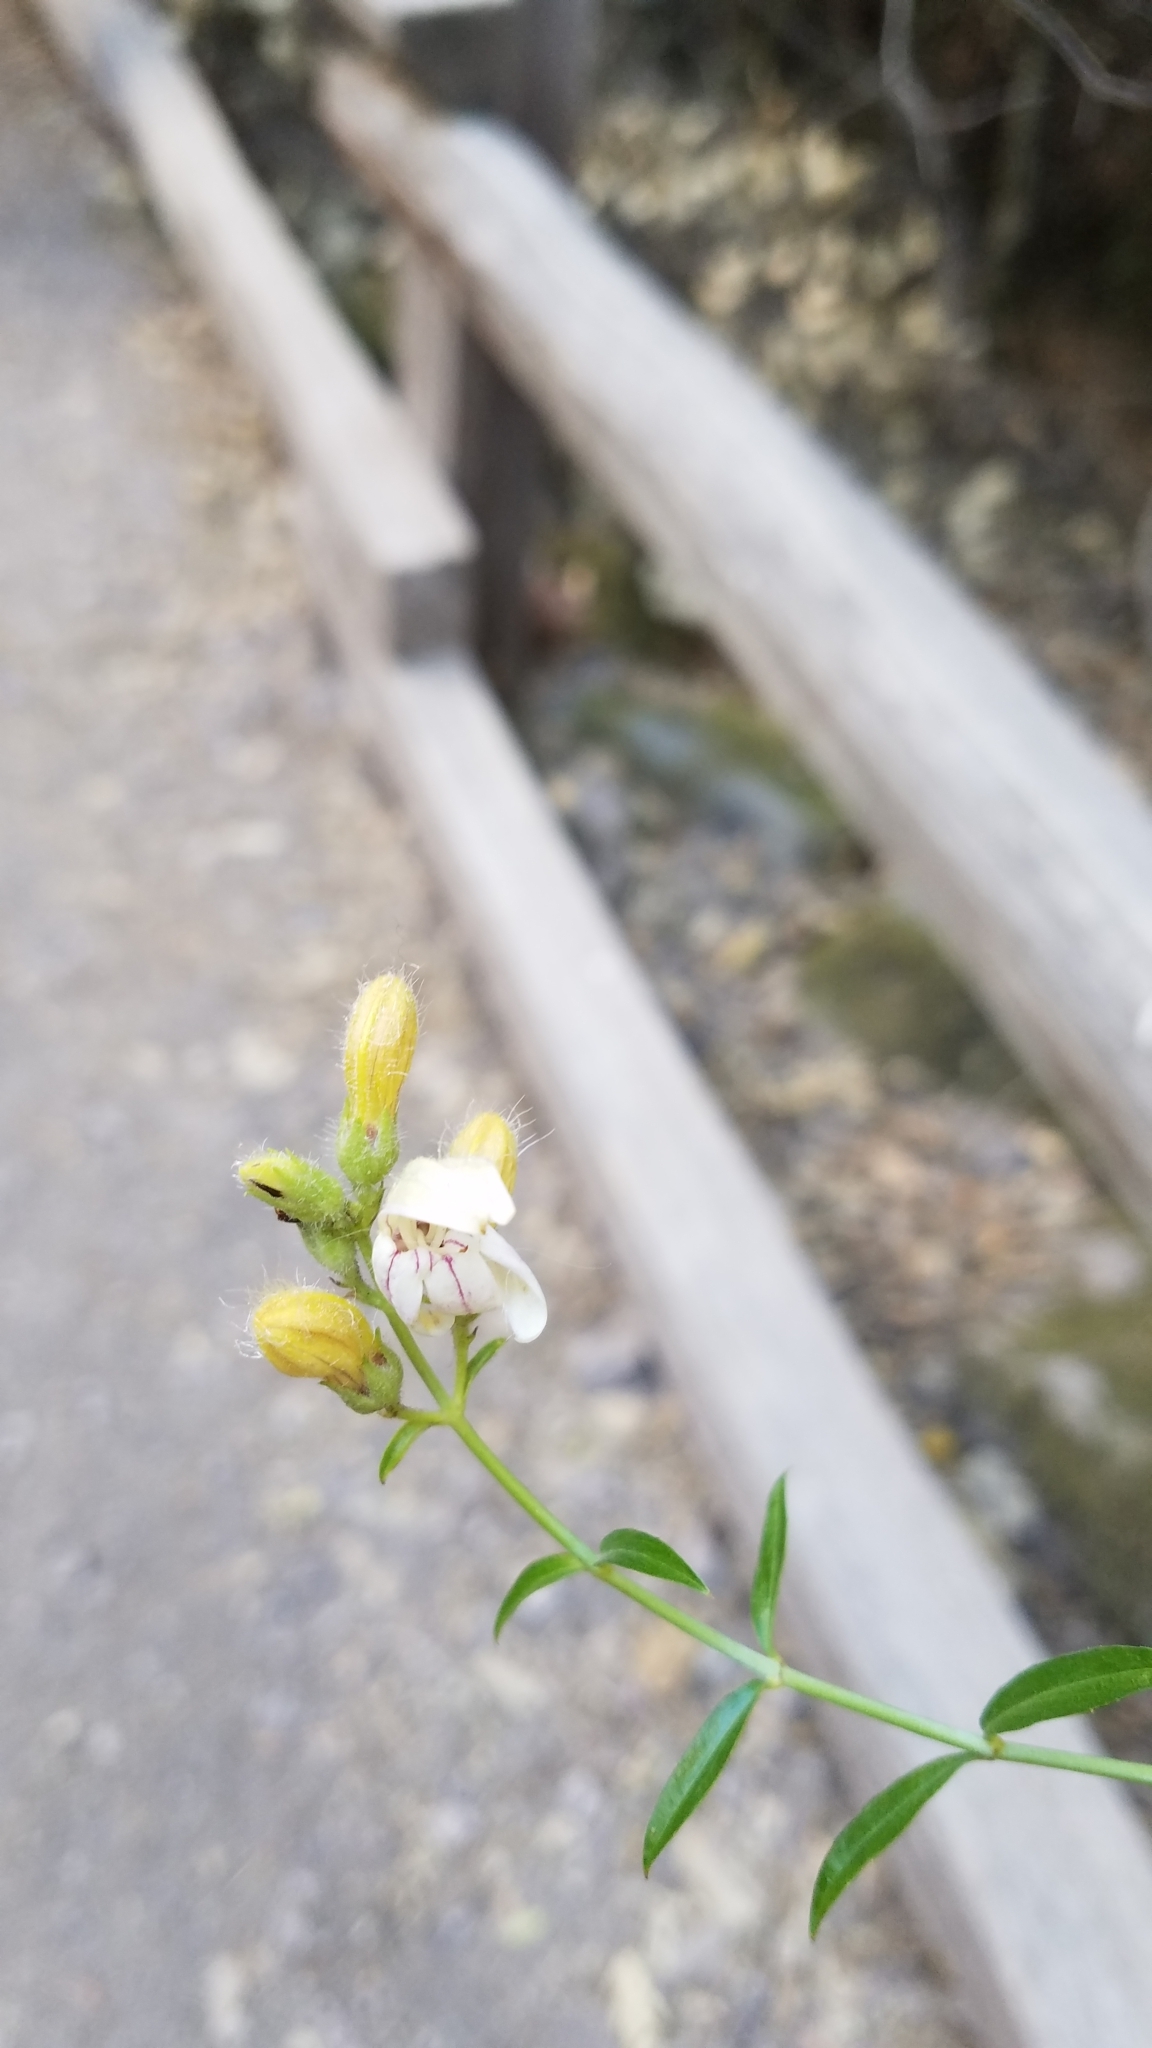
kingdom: Plantae
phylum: Tracheophyta
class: Magnoliopsida
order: Lamiales
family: Plantaginaceae
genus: Keckiella
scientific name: Keckiella breviflora
